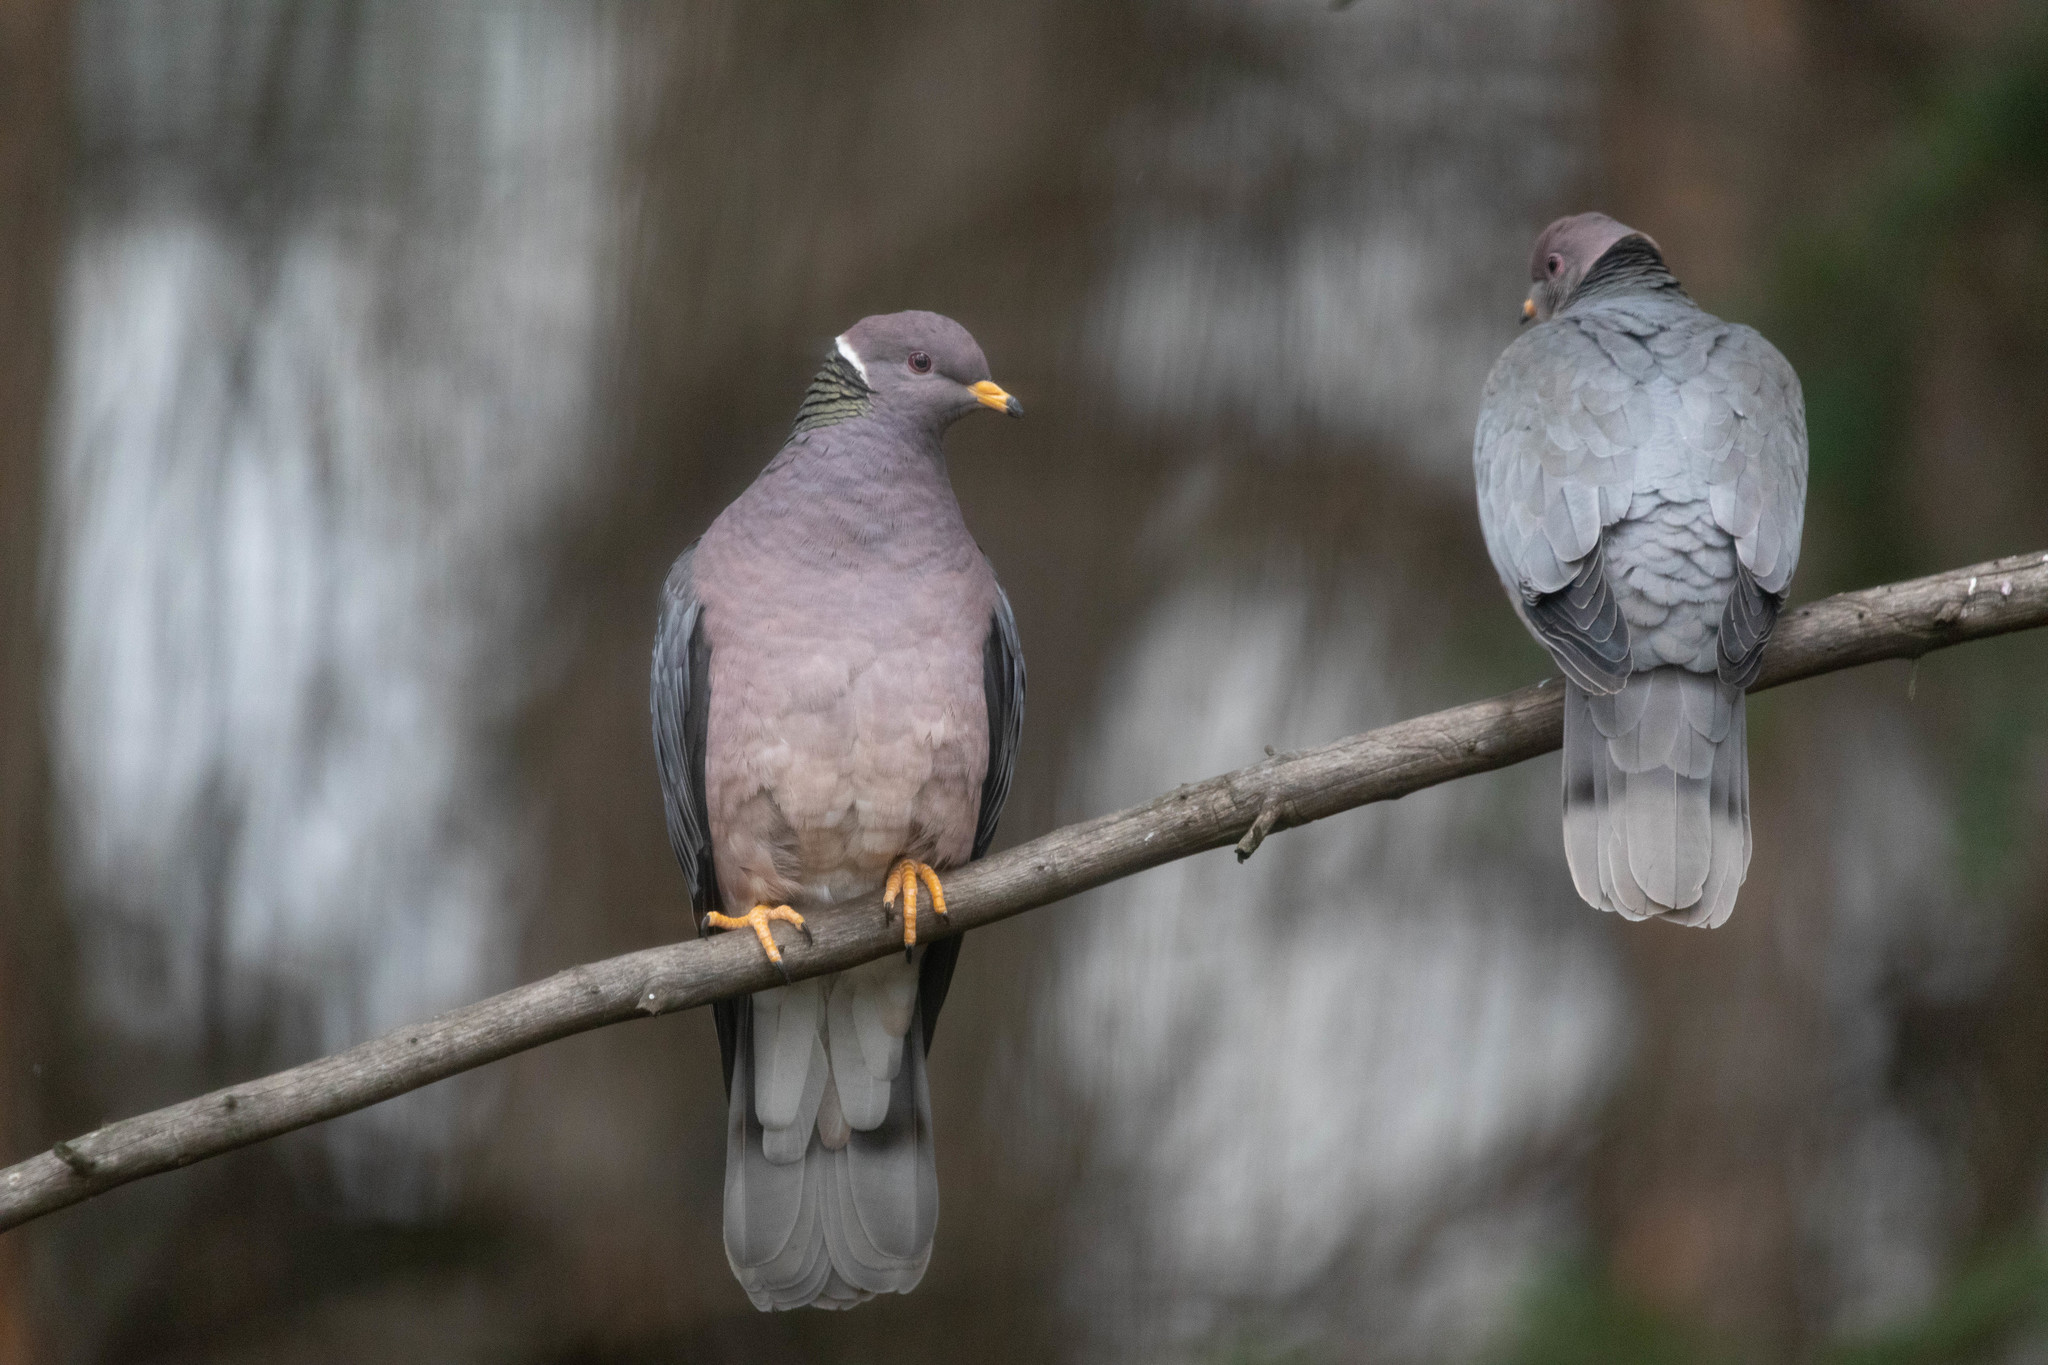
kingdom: Animalia
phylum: Chordata
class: Aves
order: Columbiformes
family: Columbidae
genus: Patagioenas
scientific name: Patagioenas fasciata
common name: Band-tailed pigeon
